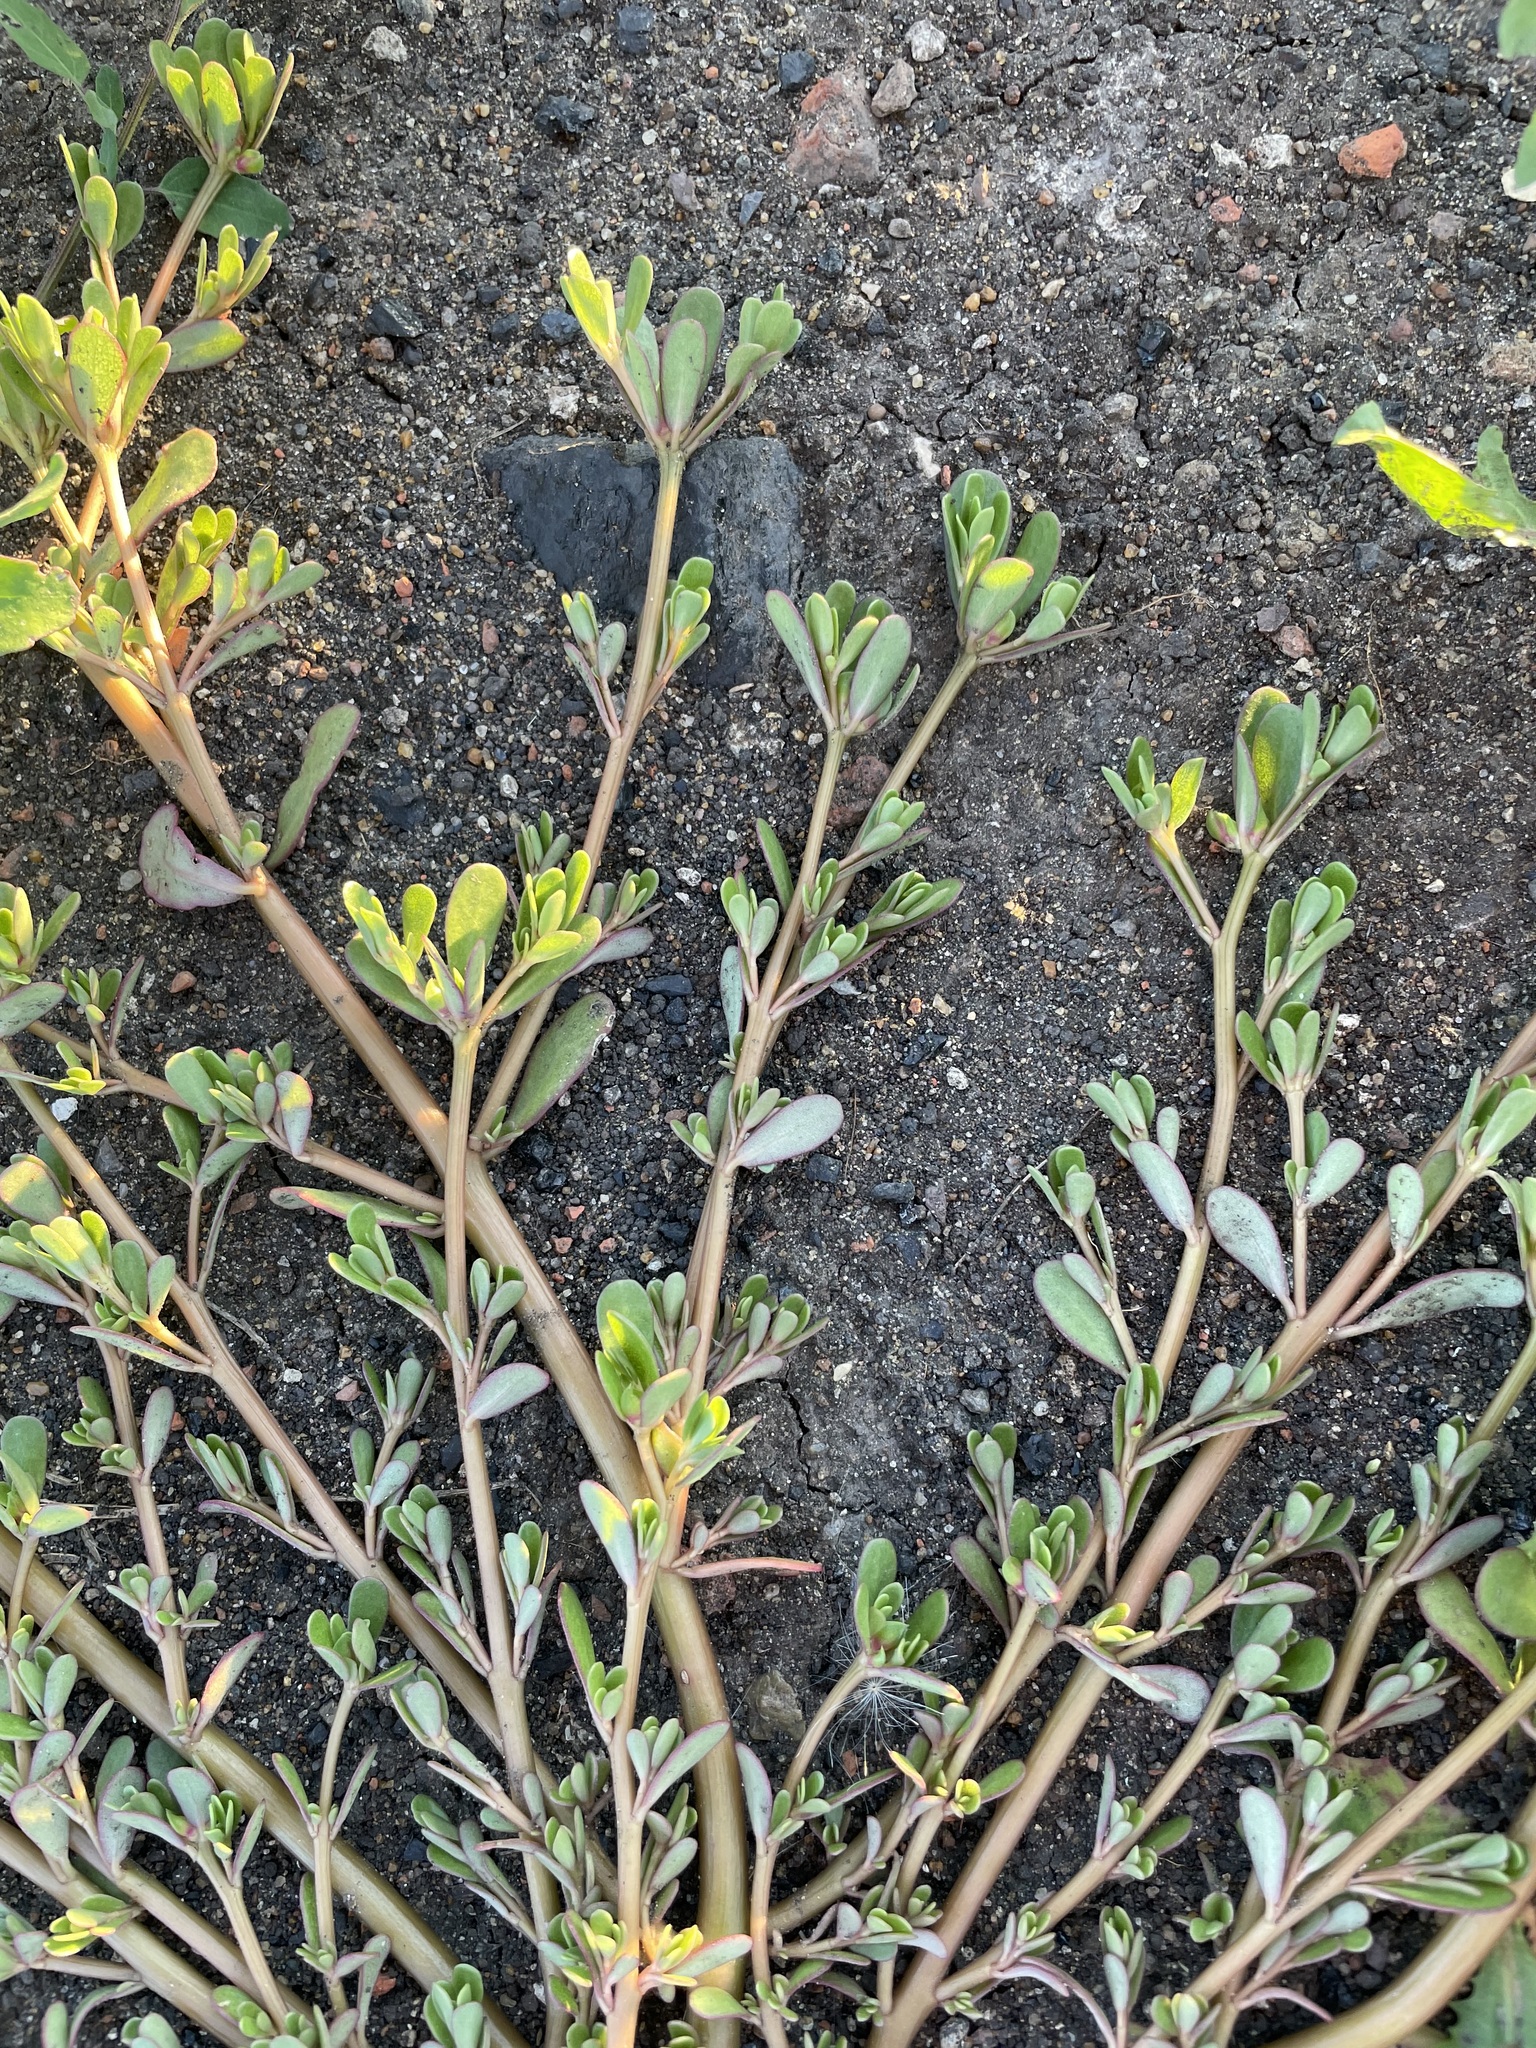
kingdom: Plantae
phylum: Tracheophyta
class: Magnoliopsida
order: Caryophyllales
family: Portulacaceae
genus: Portulaca
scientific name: Portulaca oleracea
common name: Common purslane
